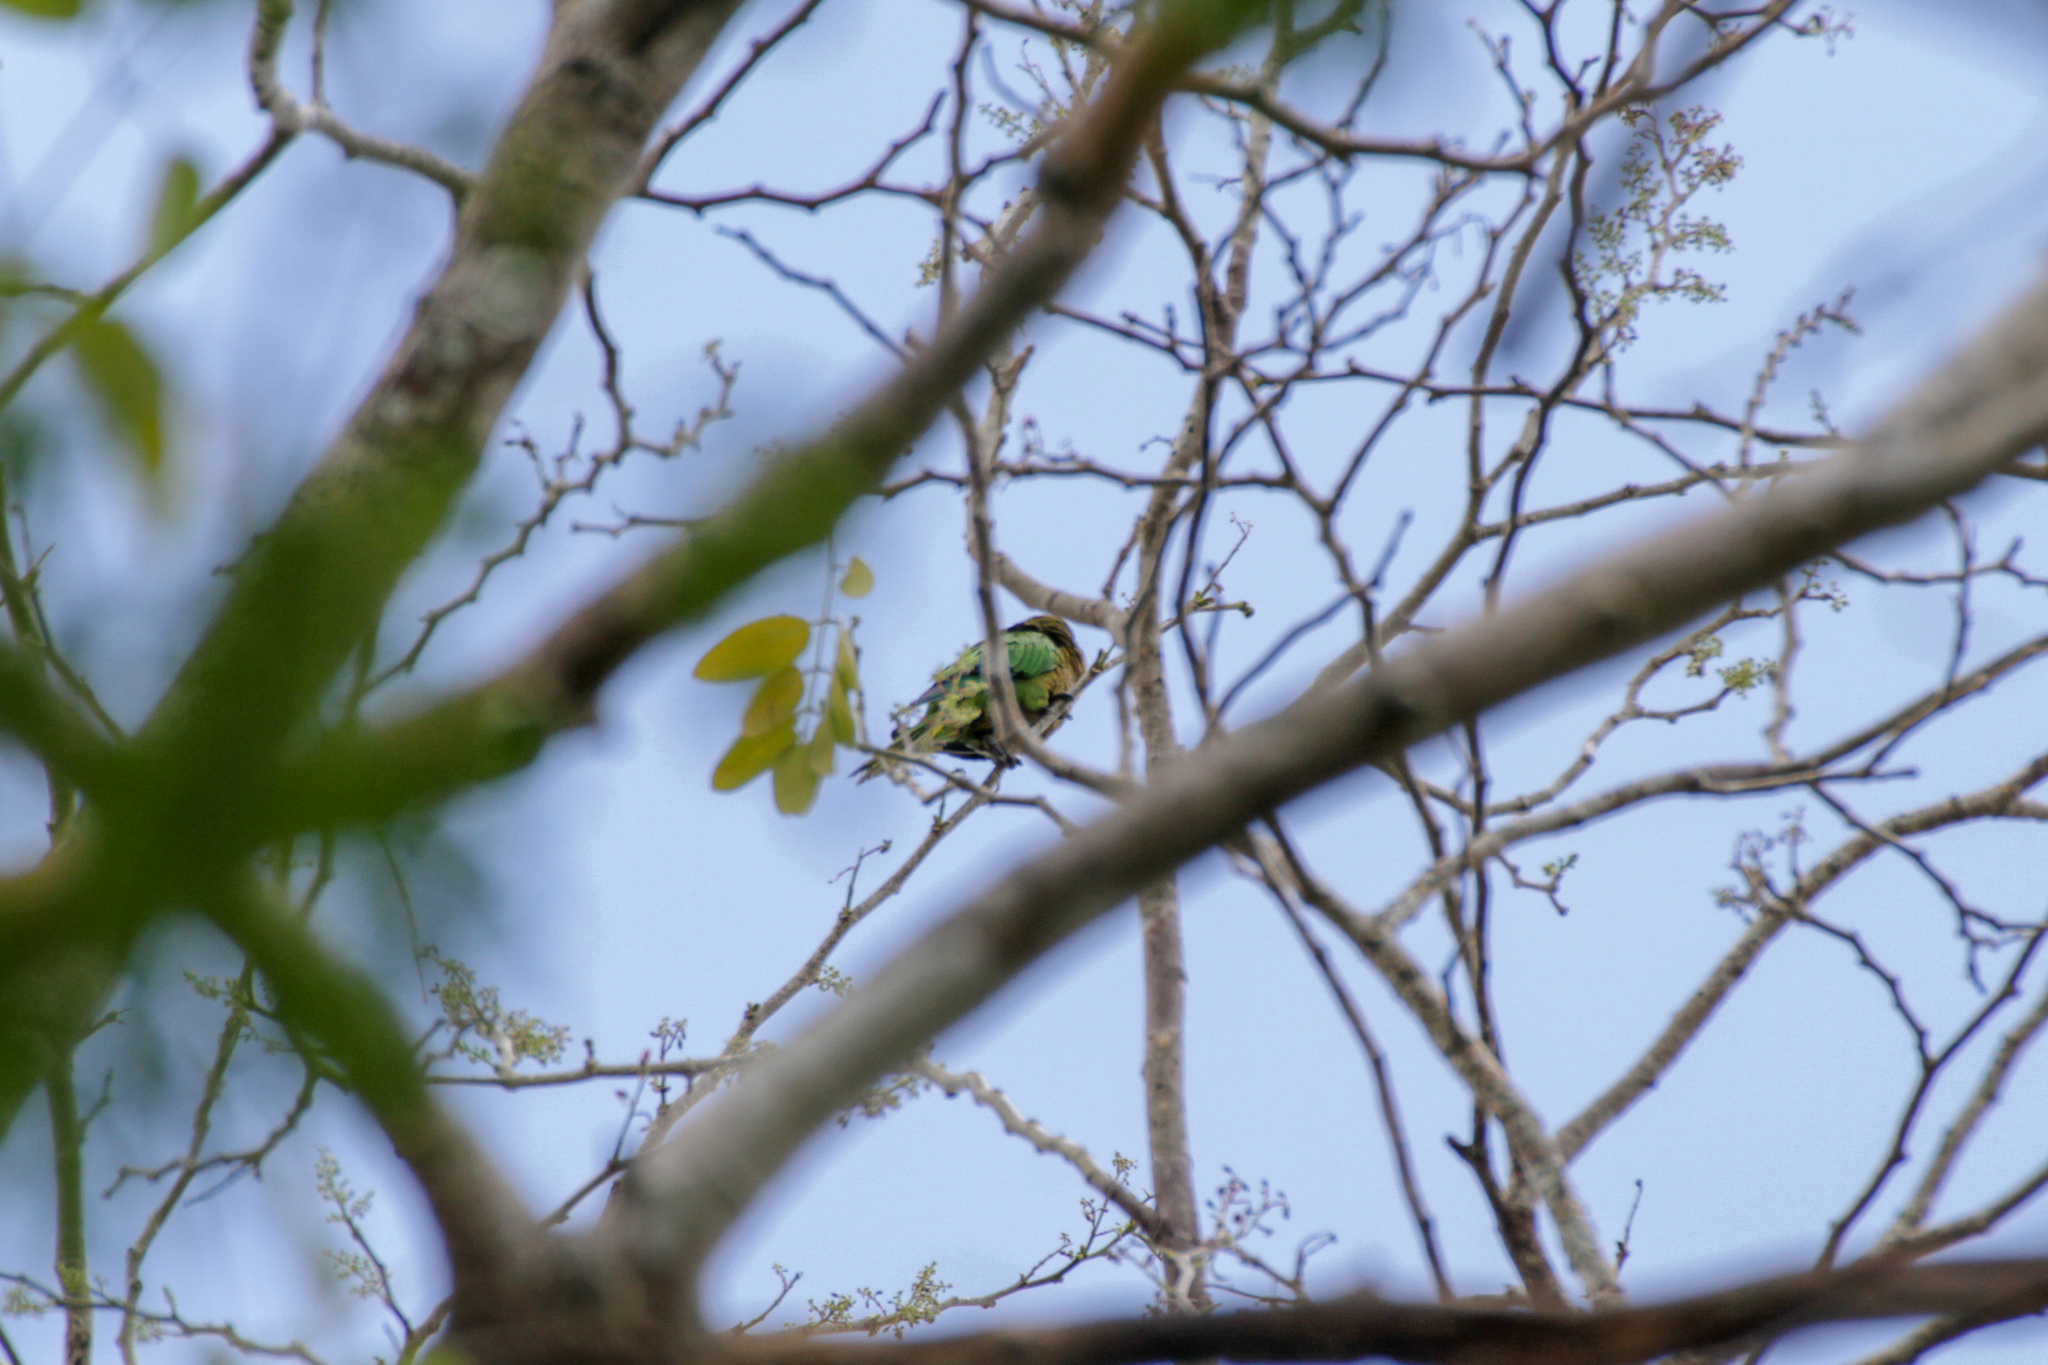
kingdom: Animalia
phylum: Chordata
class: Aves
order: Psittaciformes
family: Psittacidae
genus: Aratinga
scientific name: Aratinga nana
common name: Olive-throated parakeet
